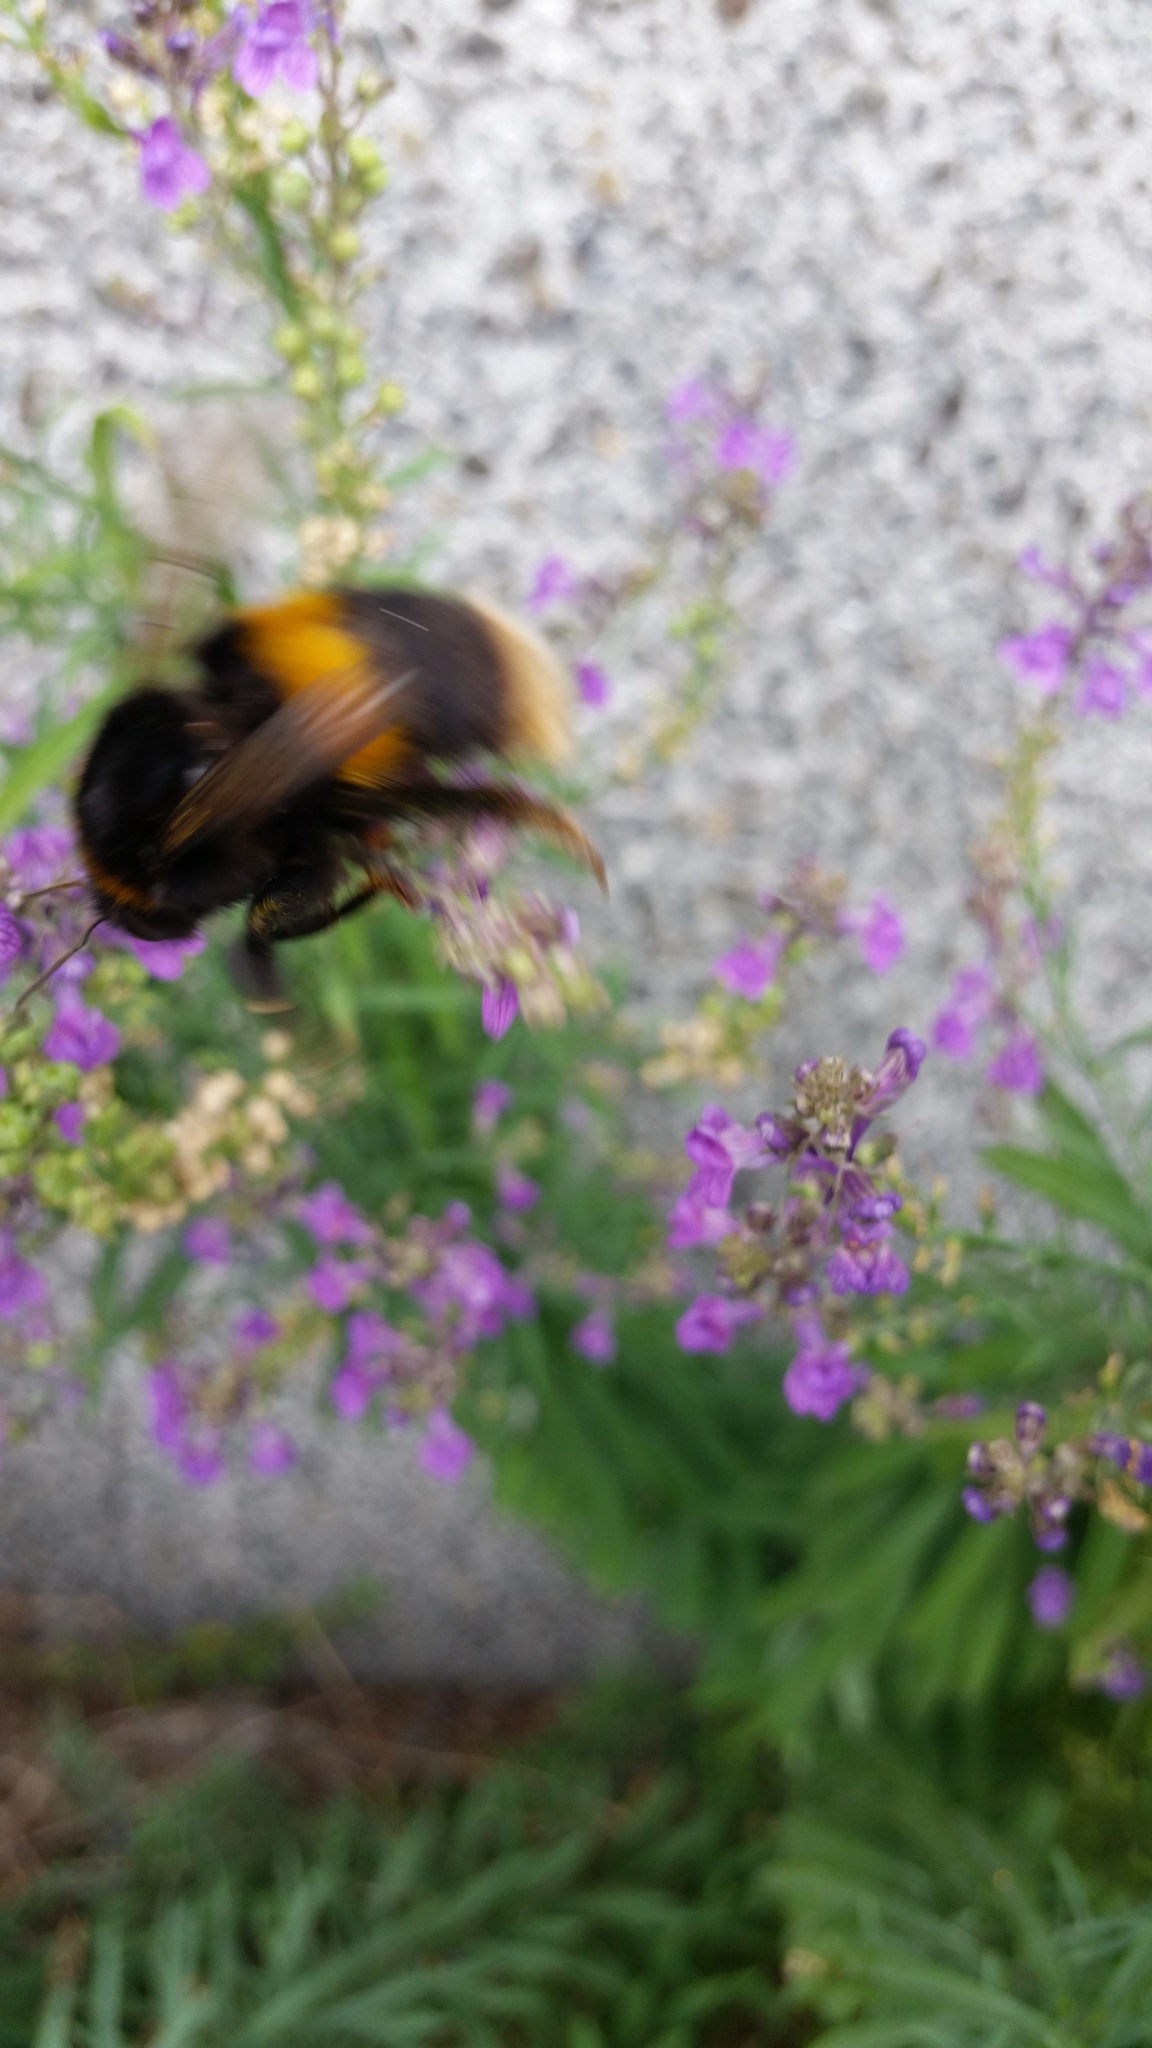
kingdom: Animalia
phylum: Arthropoda
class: Insecta
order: Hymenoptera
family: Apidae
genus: Bombus
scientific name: Bombus terrestris
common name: Buff-tailed bumblebee
